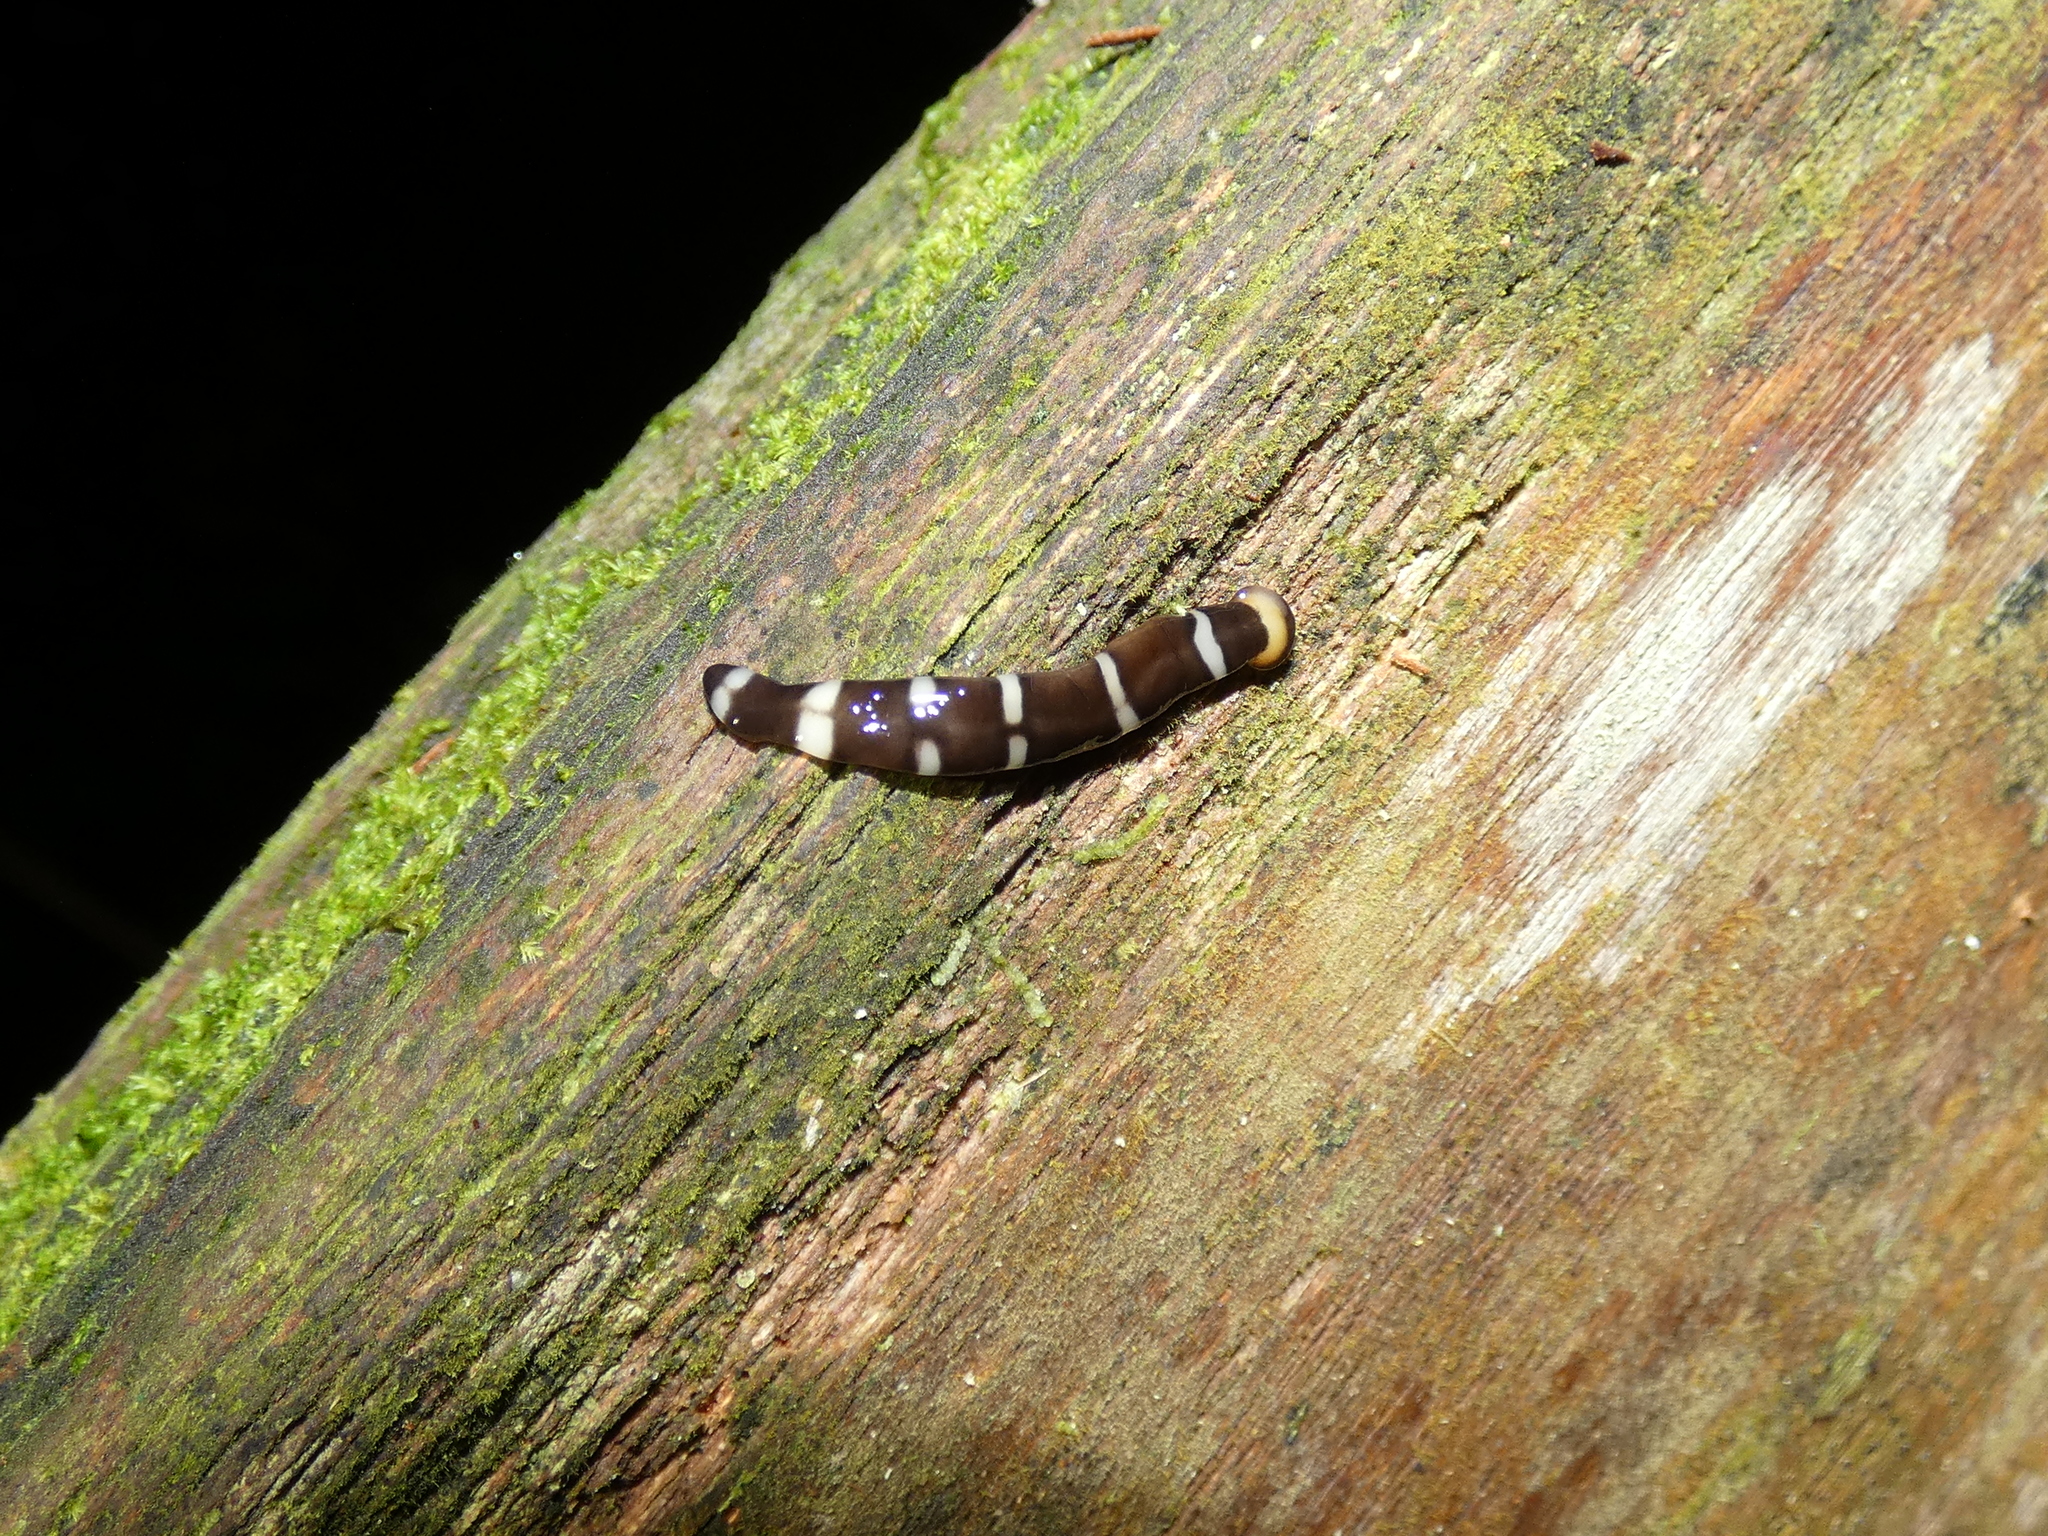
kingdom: Animalia
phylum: Platyhelminthes
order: Tricladida
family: Geoplanidae
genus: Diversibipalium
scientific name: Diversibipalium sexcinctum
